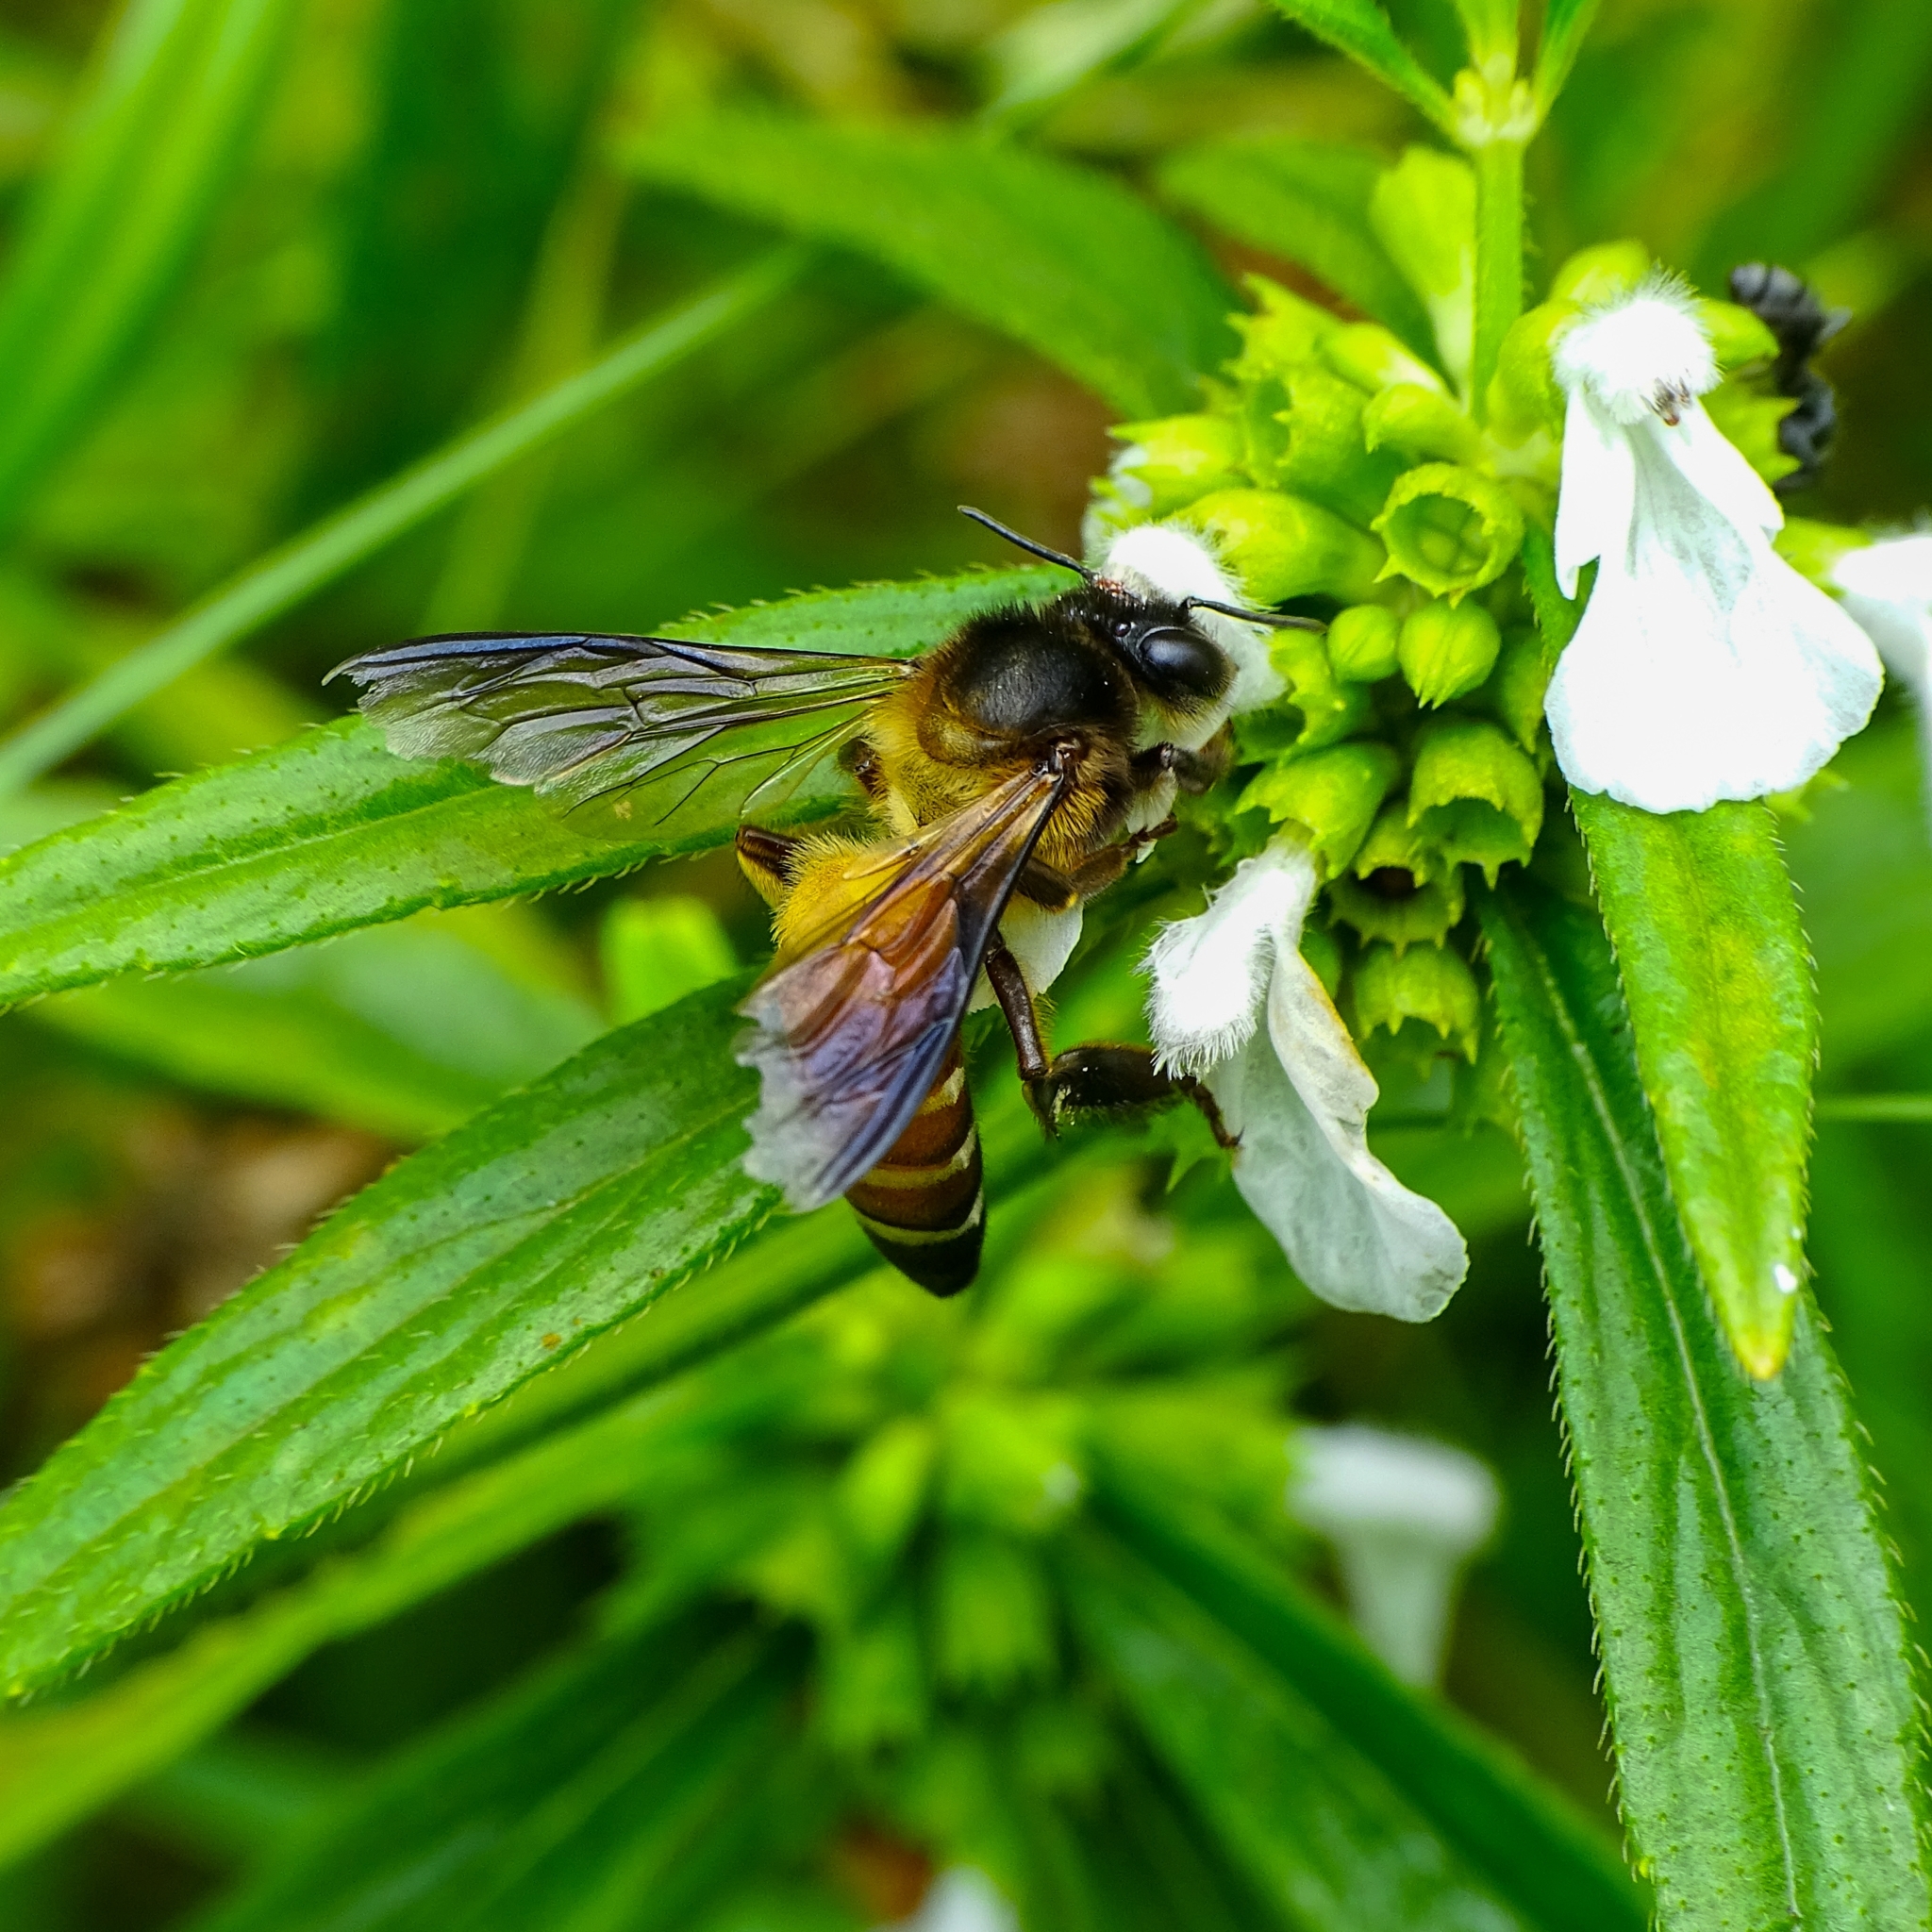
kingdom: Animalia
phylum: Arthropoda
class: Insecta
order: Hymenoptera
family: Apidae
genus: Apis
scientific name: Apis dorsata
